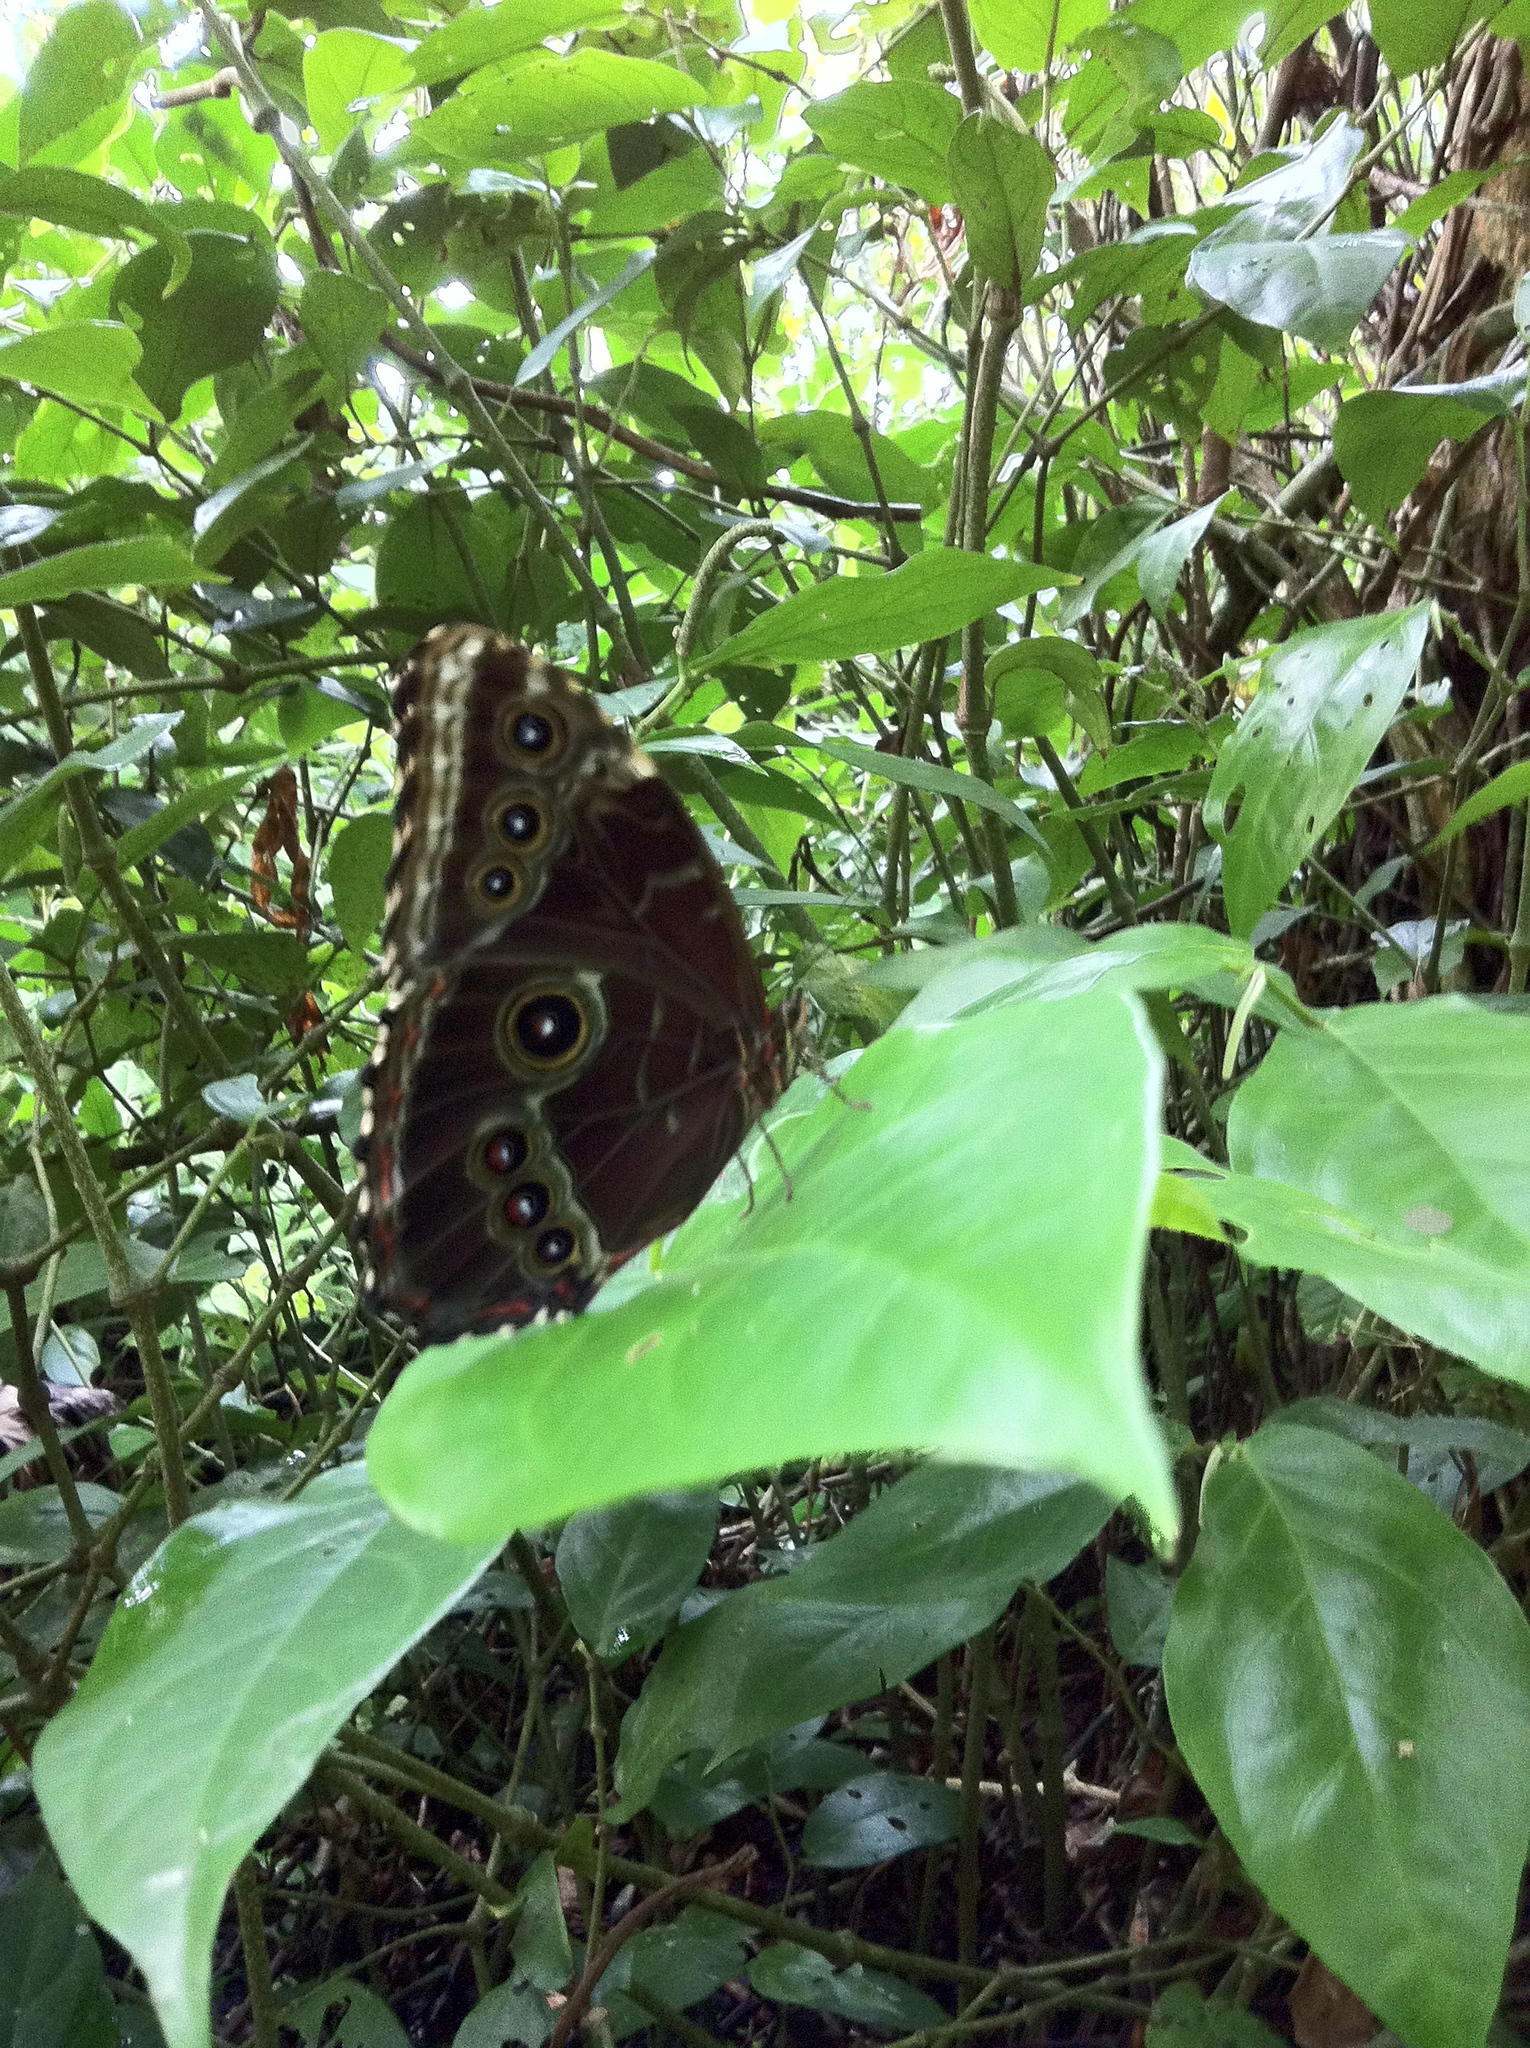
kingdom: Animalia
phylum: Arthropoda
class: Insecta
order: Lepidoptera
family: Nymphalidae
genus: Morpho
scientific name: Morpho helenor
